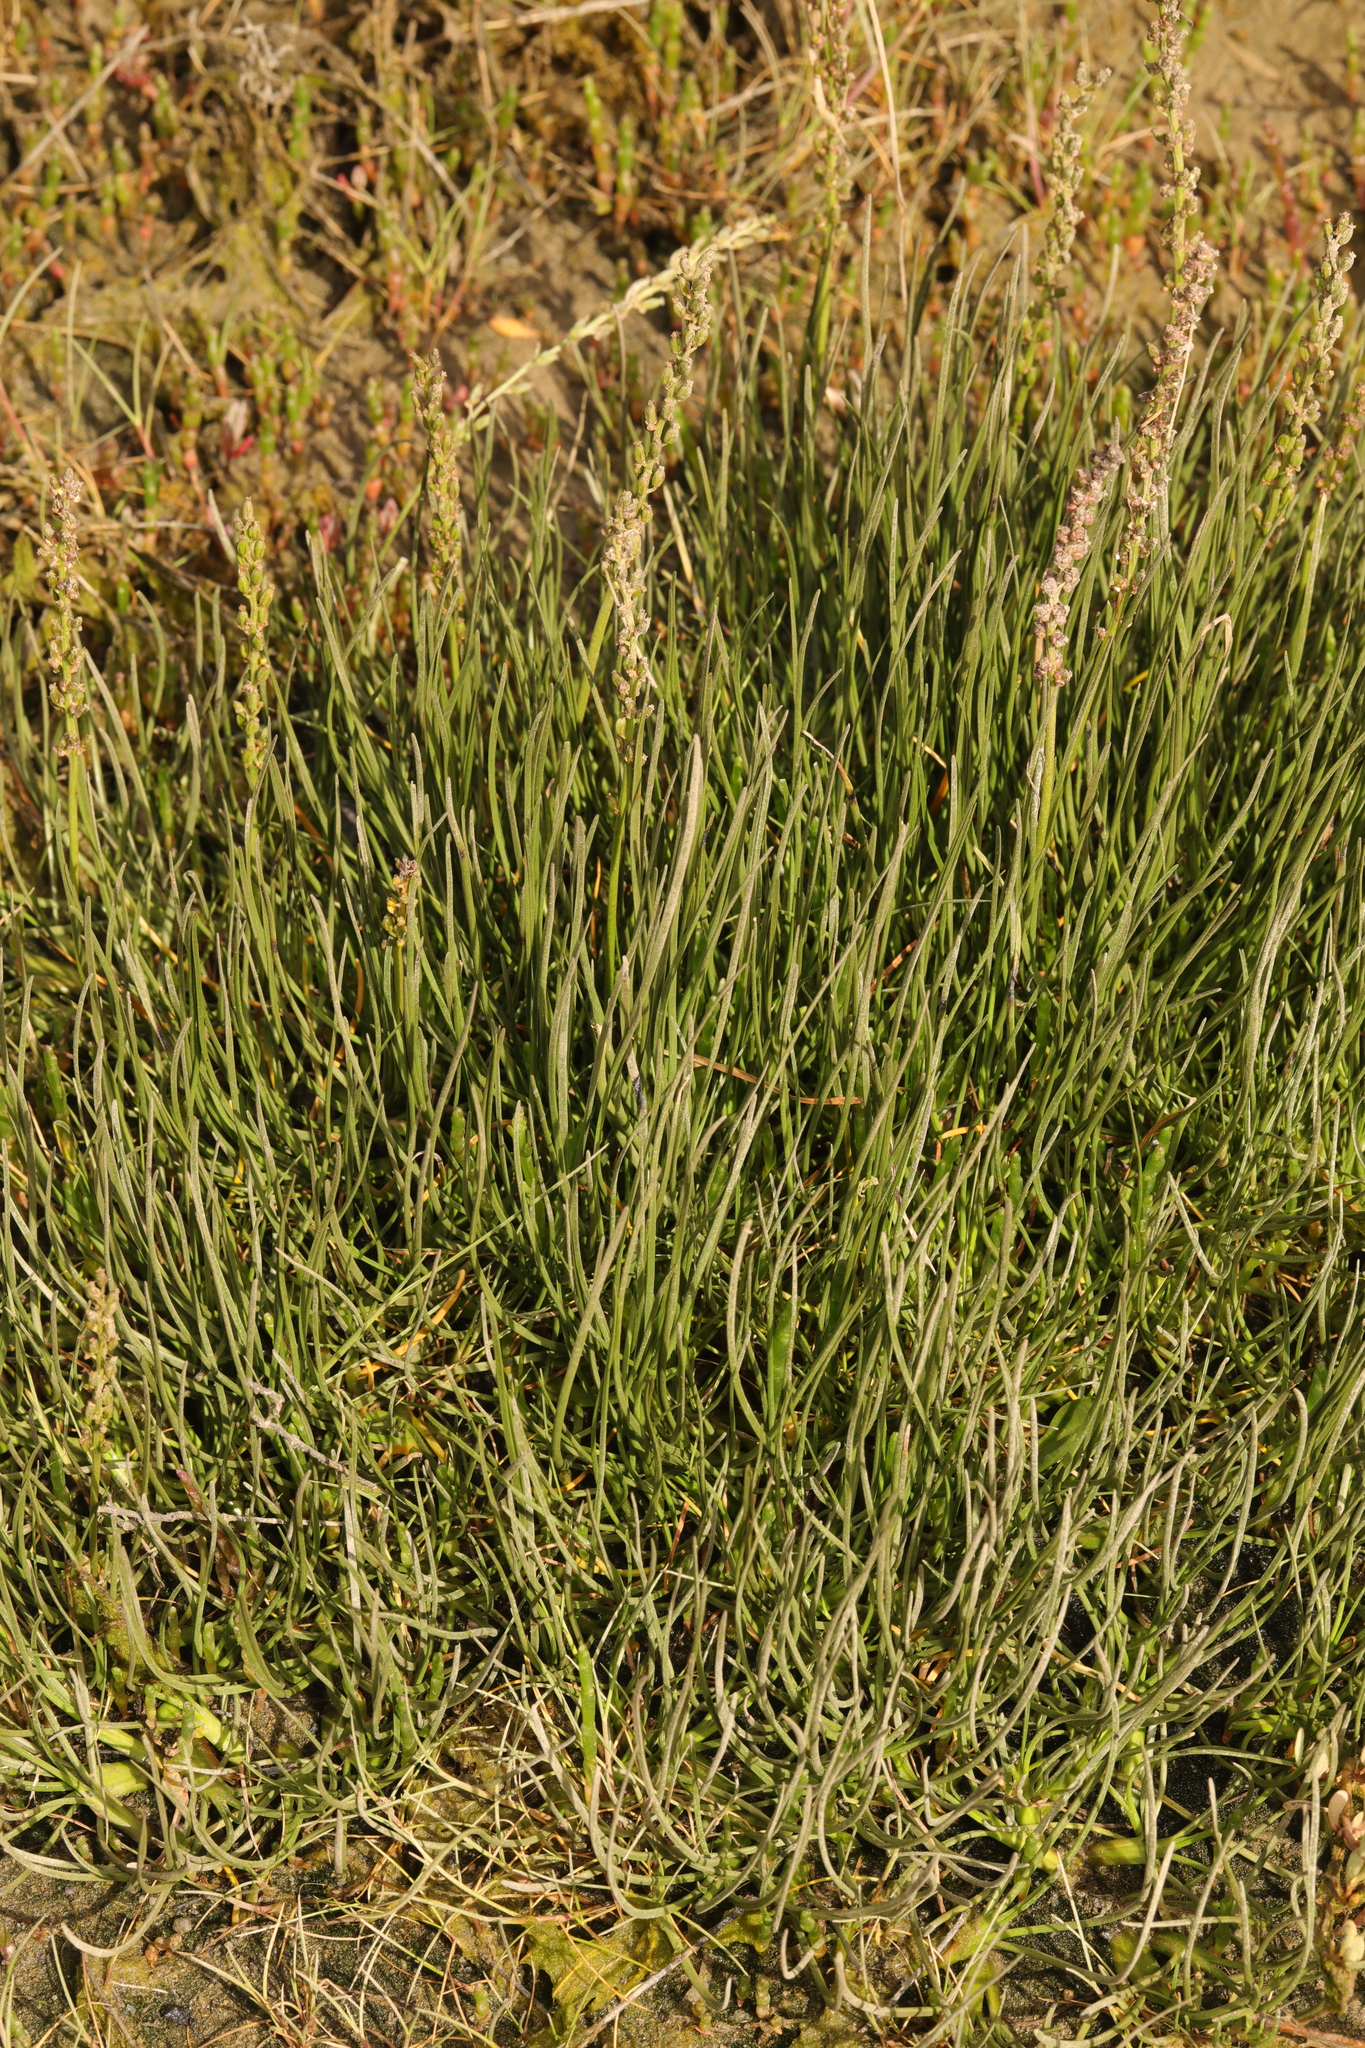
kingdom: Plantae
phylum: Tracheophyta
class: Liliopsida
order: Alismatales
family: Juncaginaceae
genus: Triglochin
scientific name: Triglochin maritima
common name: Sea arrowgrass
